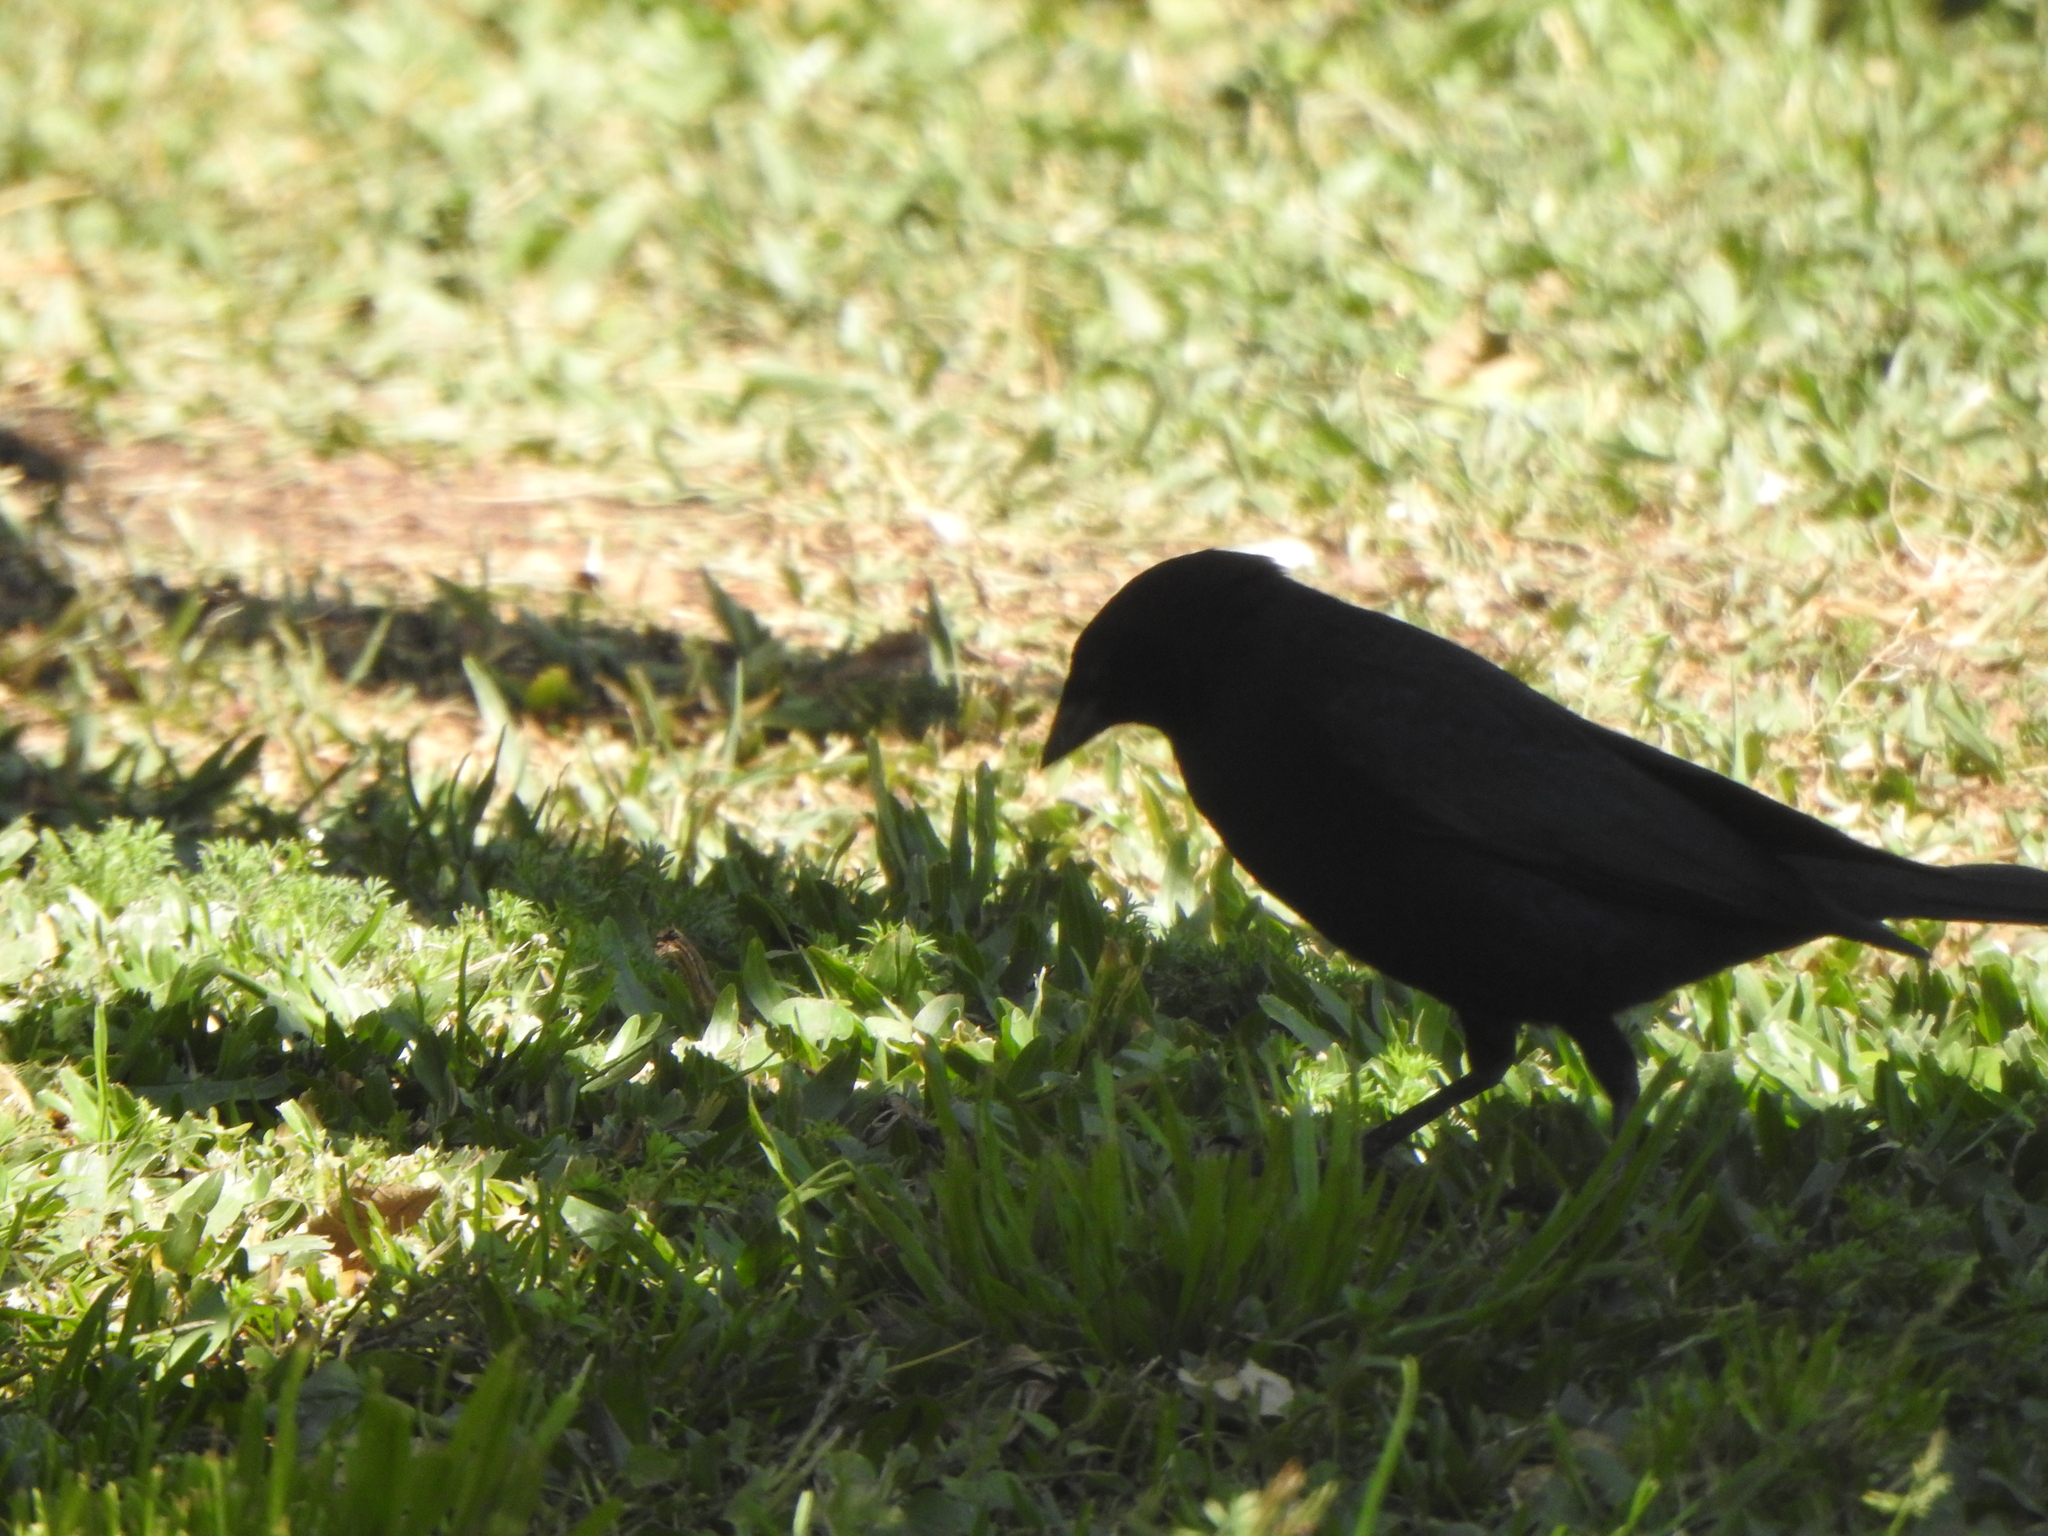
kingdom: Animalia
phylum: Chordata
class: Aves
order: Passeriformes
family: Icteridae
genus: Molothrus
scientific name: Molothrus bonariensis
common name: Shiny cowbird
